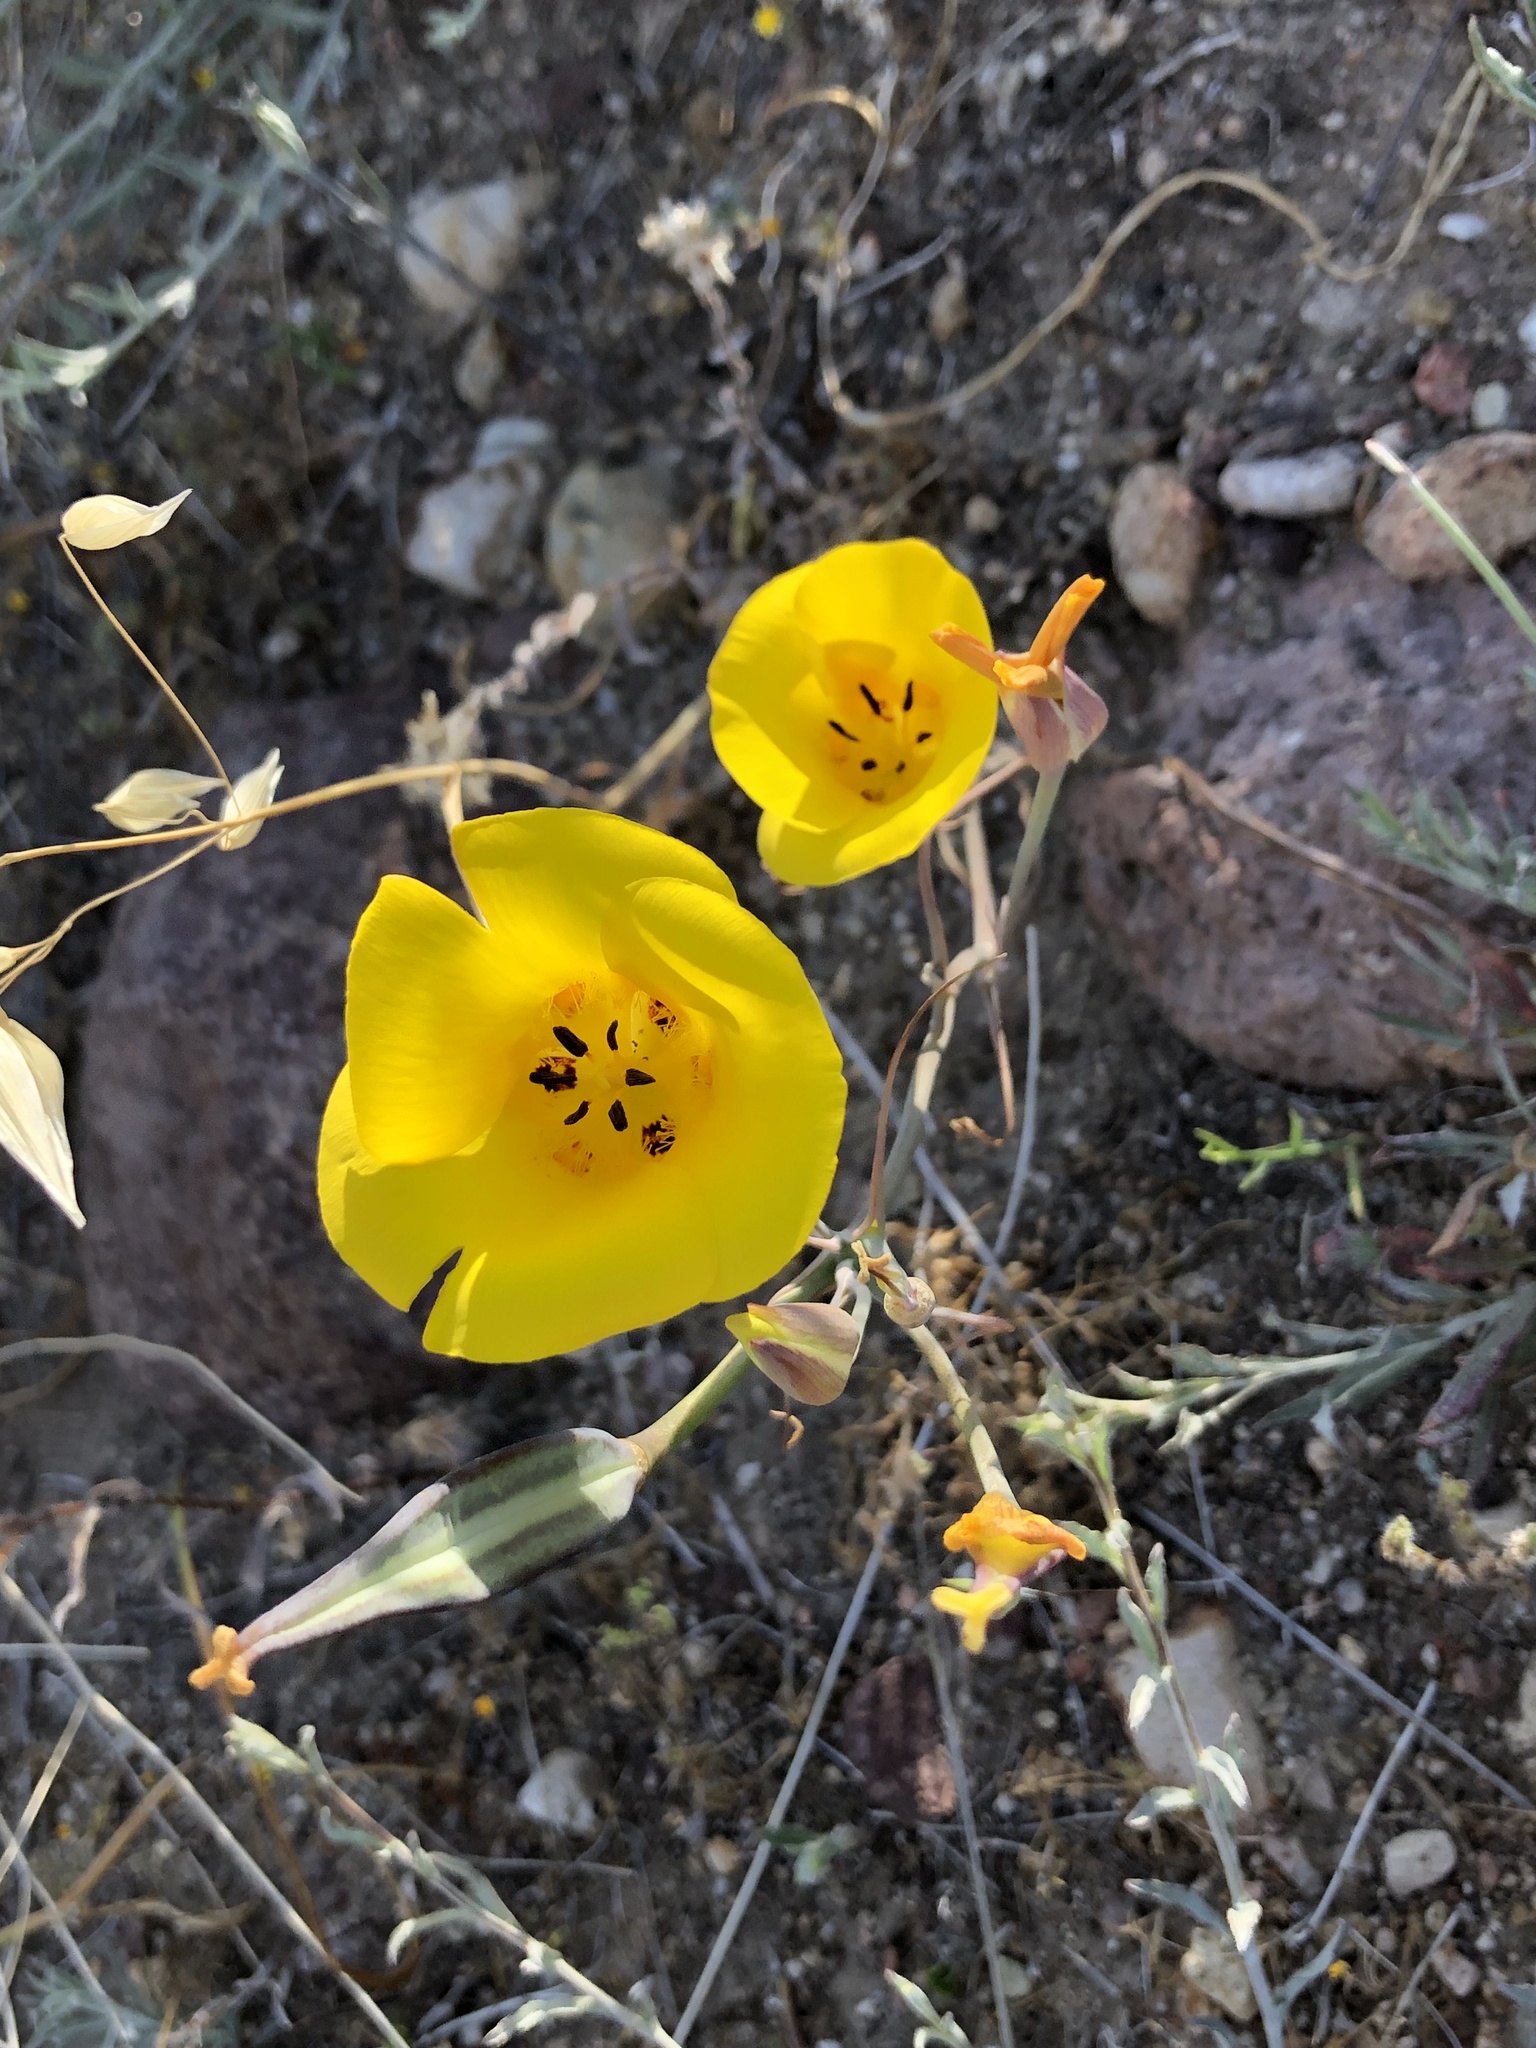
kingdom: Plantae
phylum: Tracheophyta
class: Liliopsida
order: Liliales
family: Liliaceae
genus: Calochortus
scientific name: Calochortus clavatus
